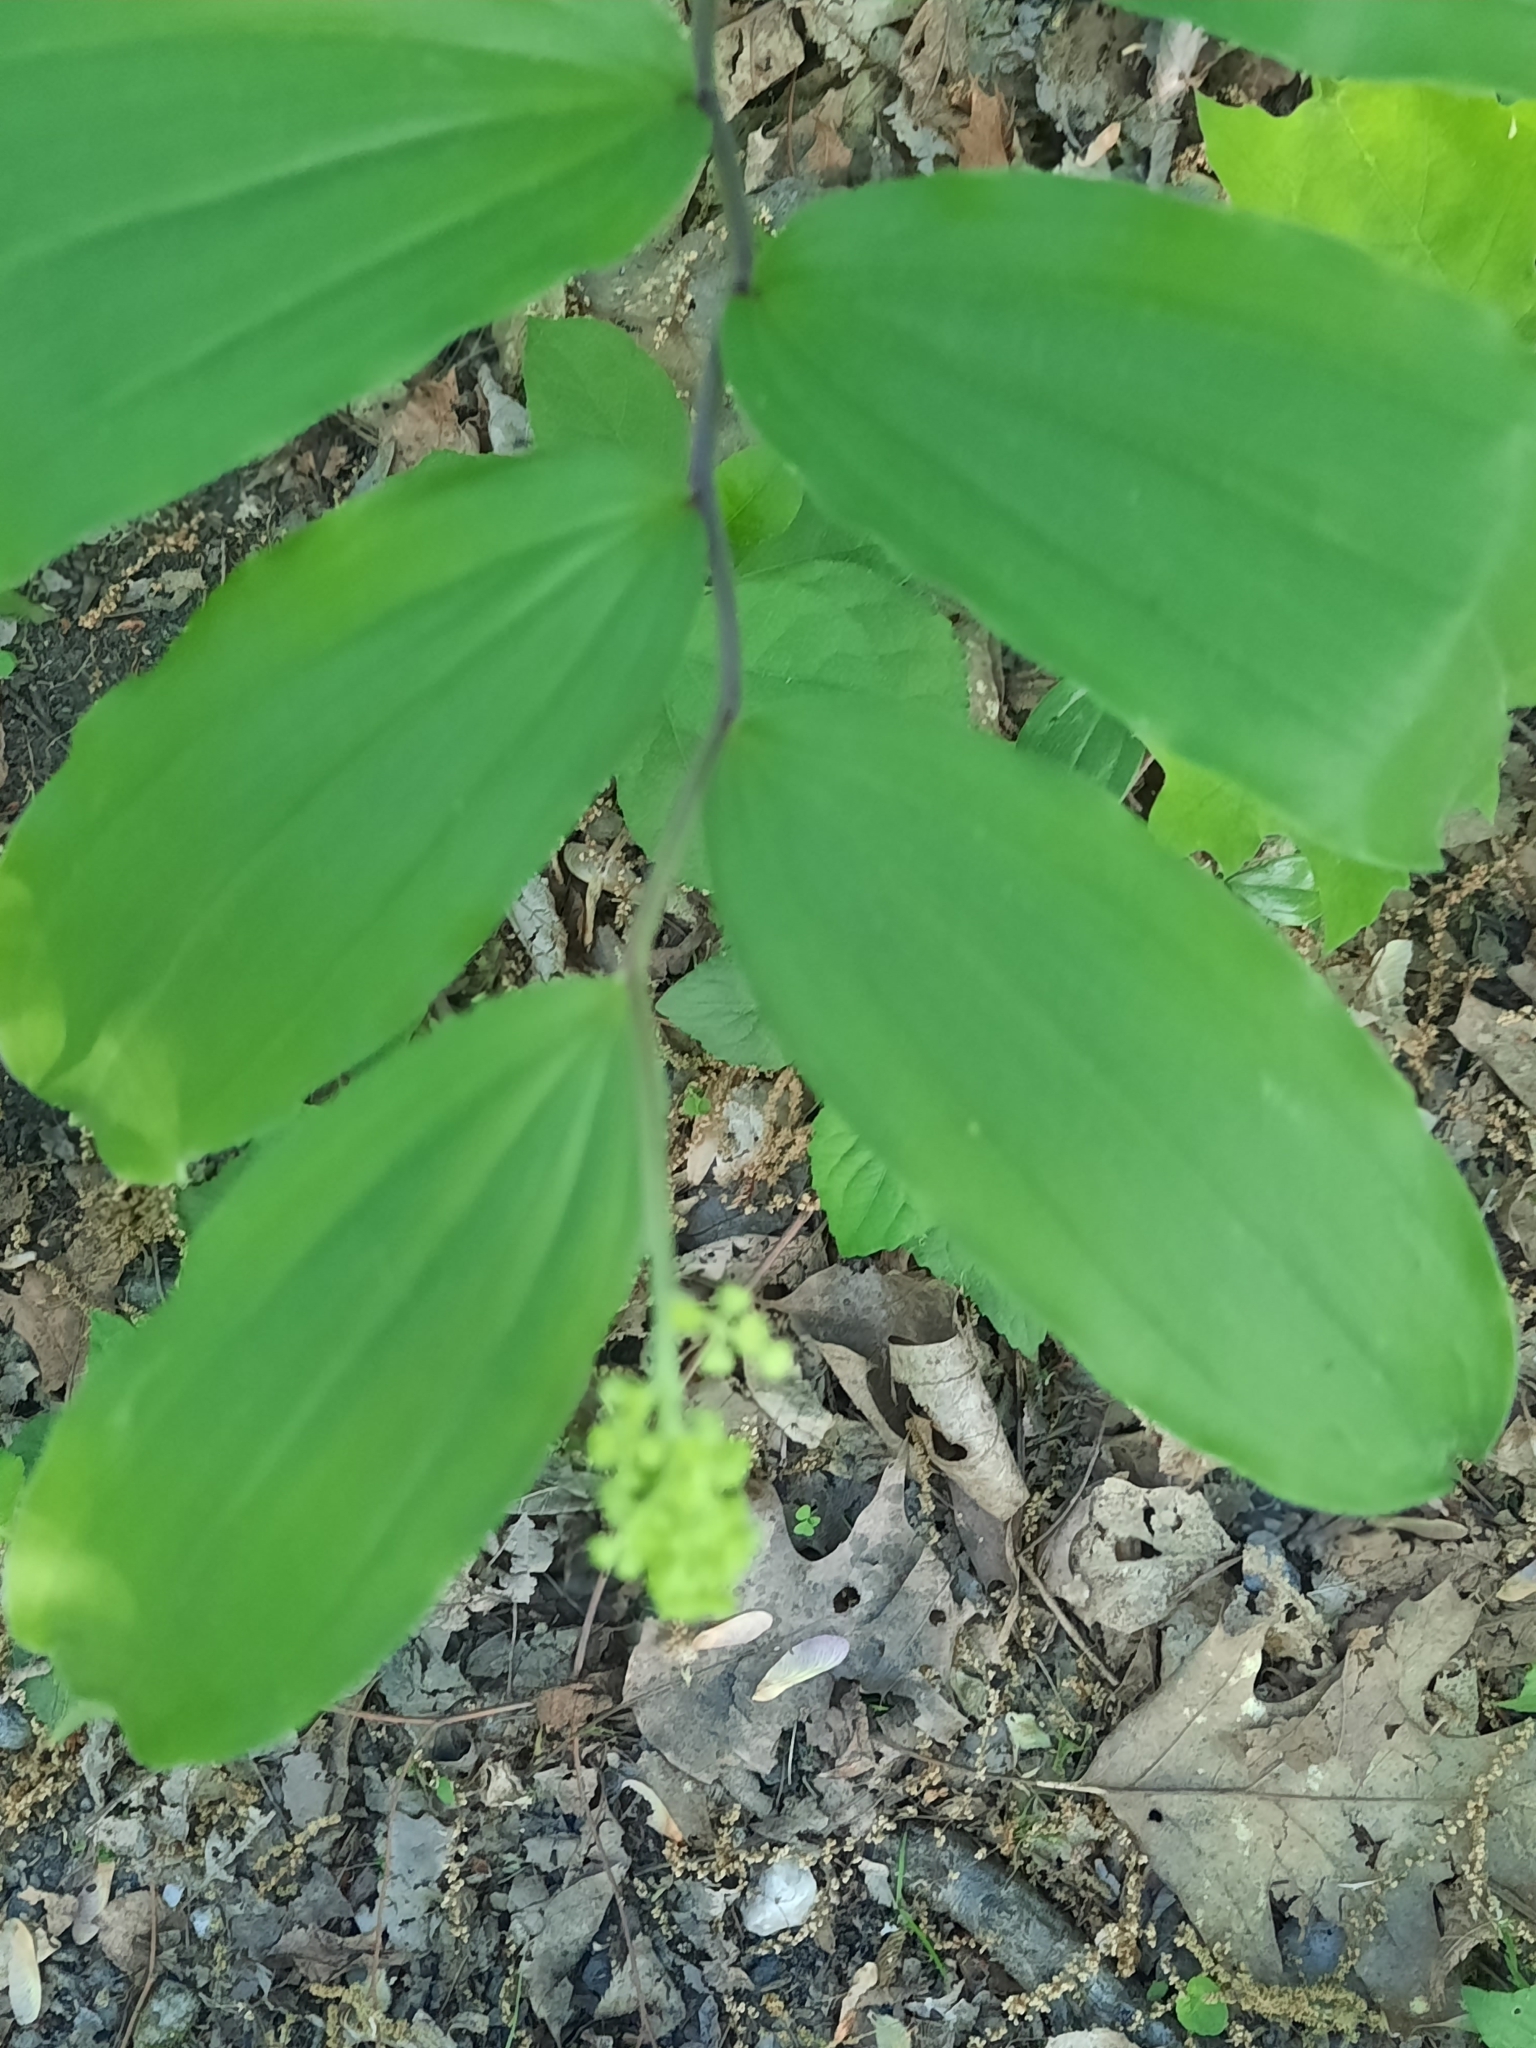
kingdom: Plantae
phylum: Tracheophyta
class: Liliopsida
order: Asparagales
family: Asparagaceae
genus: Maianthemum
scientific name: Maianthemum racemosum
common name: False spikenard
